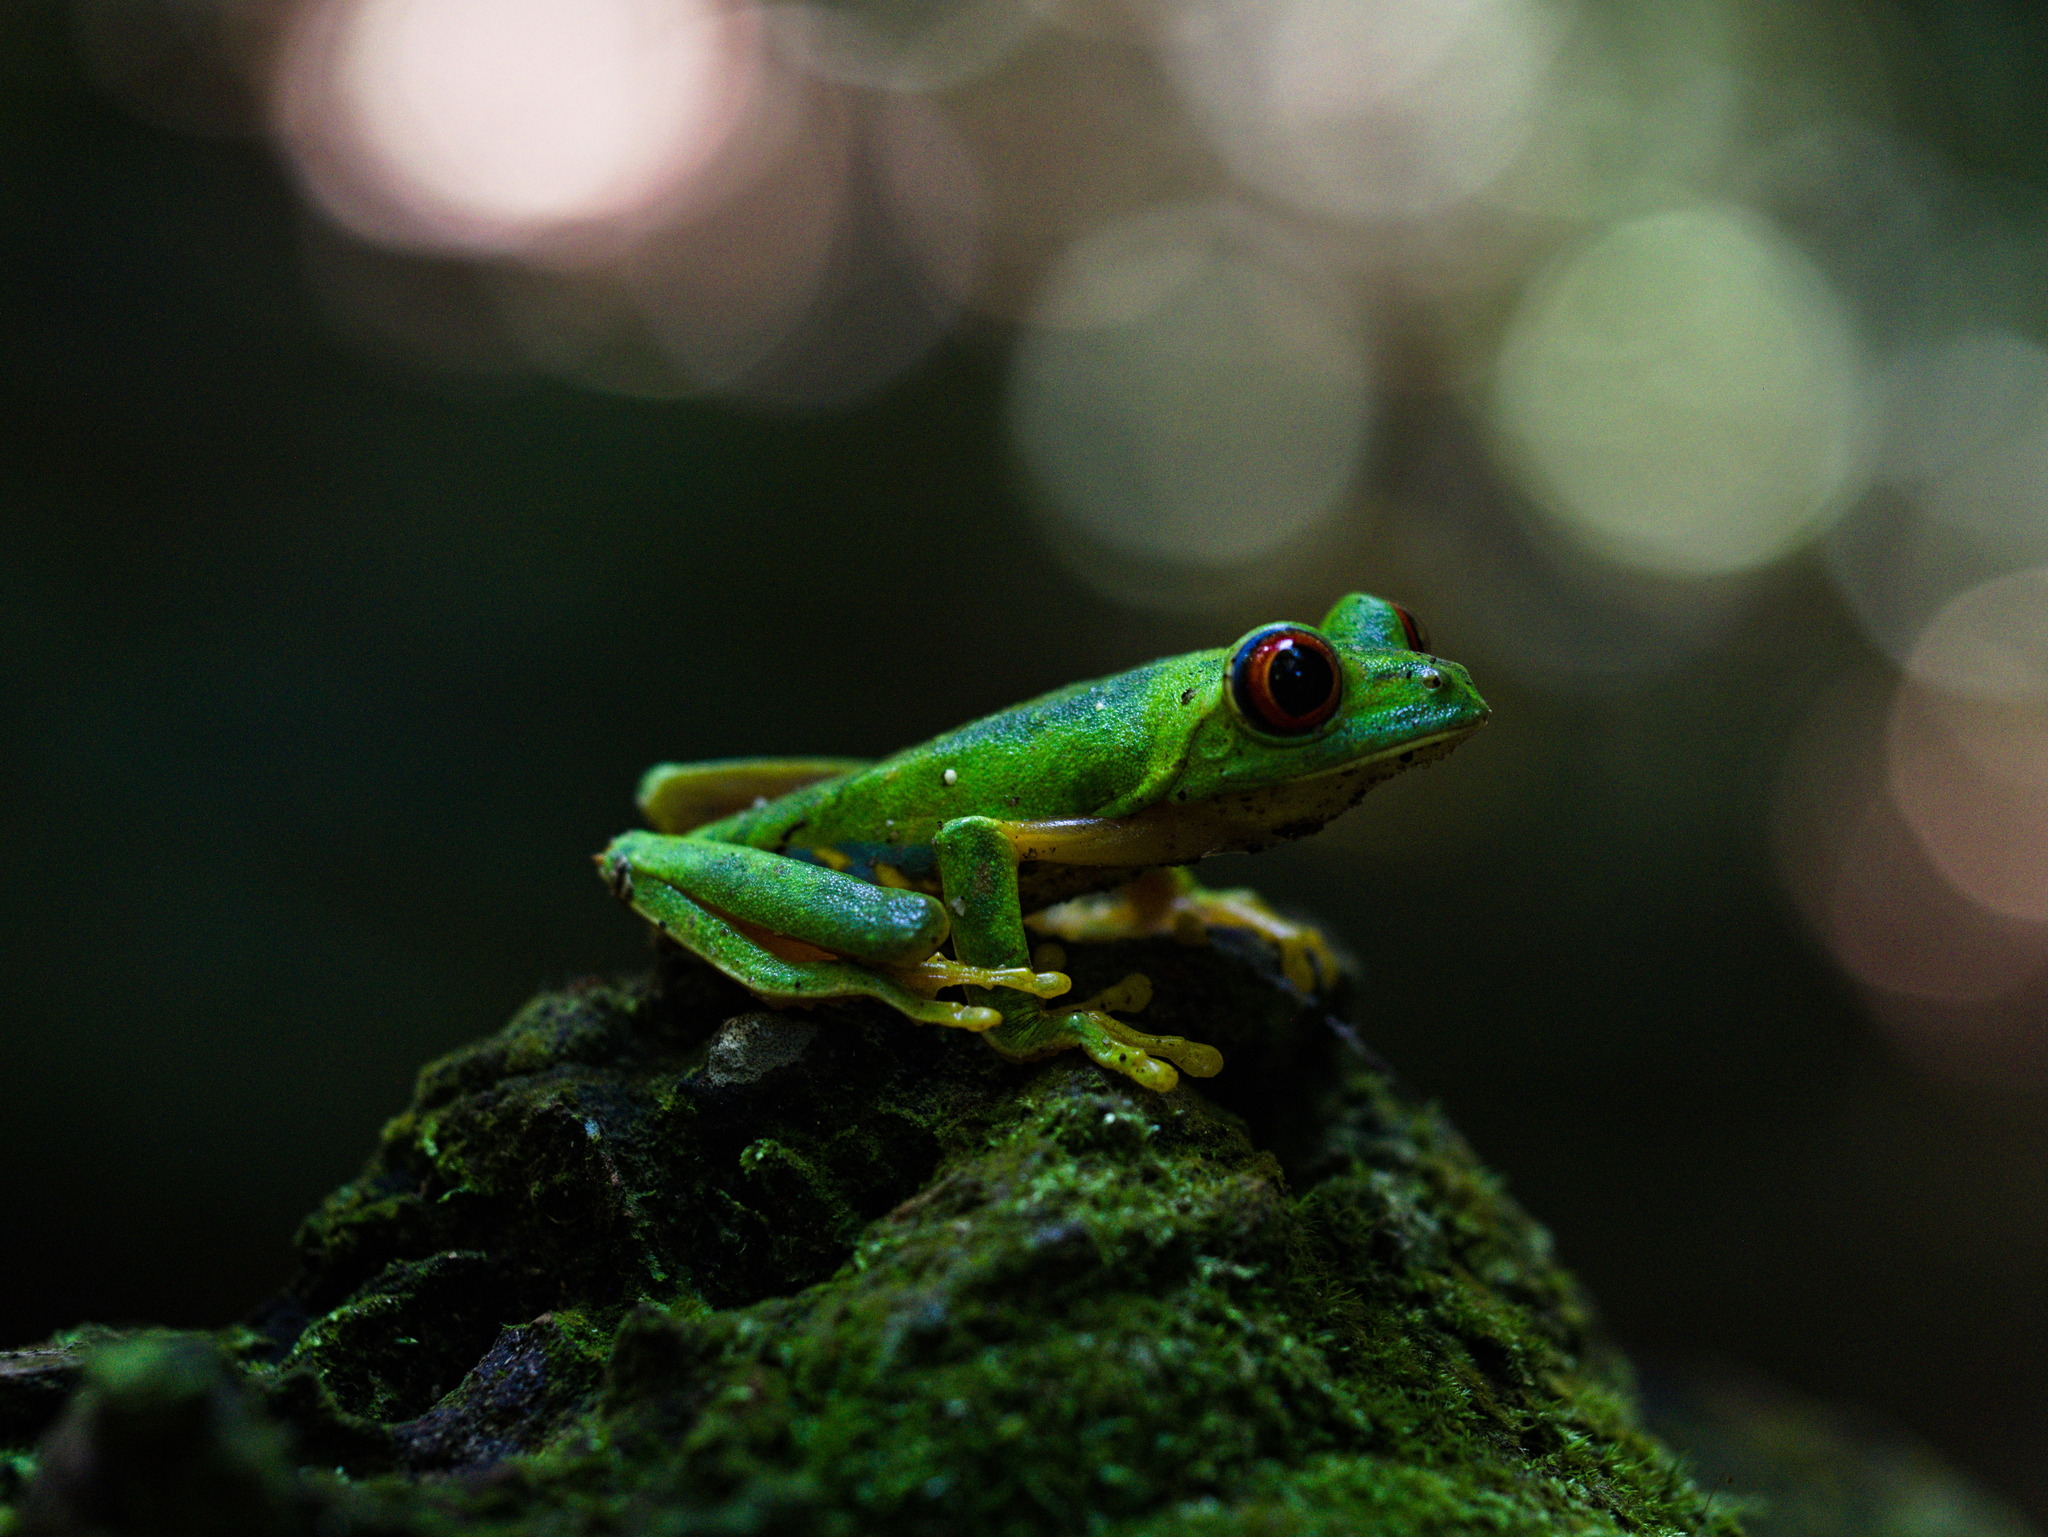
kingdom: Animalia
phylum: Chordata
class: Amphibia
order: Anura
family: Phyllomedusidae
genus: Agalychnis
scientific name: Agalychnis
